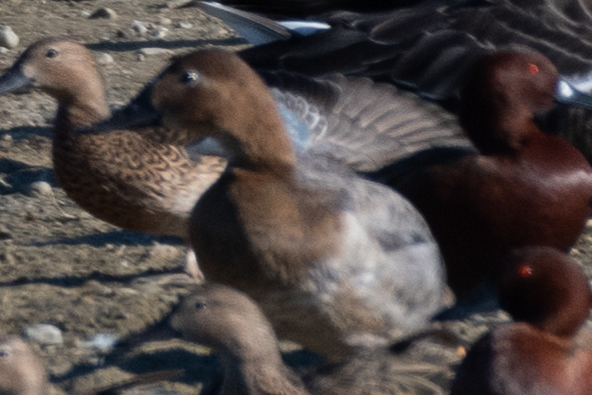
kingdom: Animalia
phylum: Chordata
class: Aves
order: Anseriformes
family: Anatidae
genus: Aythya
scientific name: Aythya valisineria
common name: Canvasback
